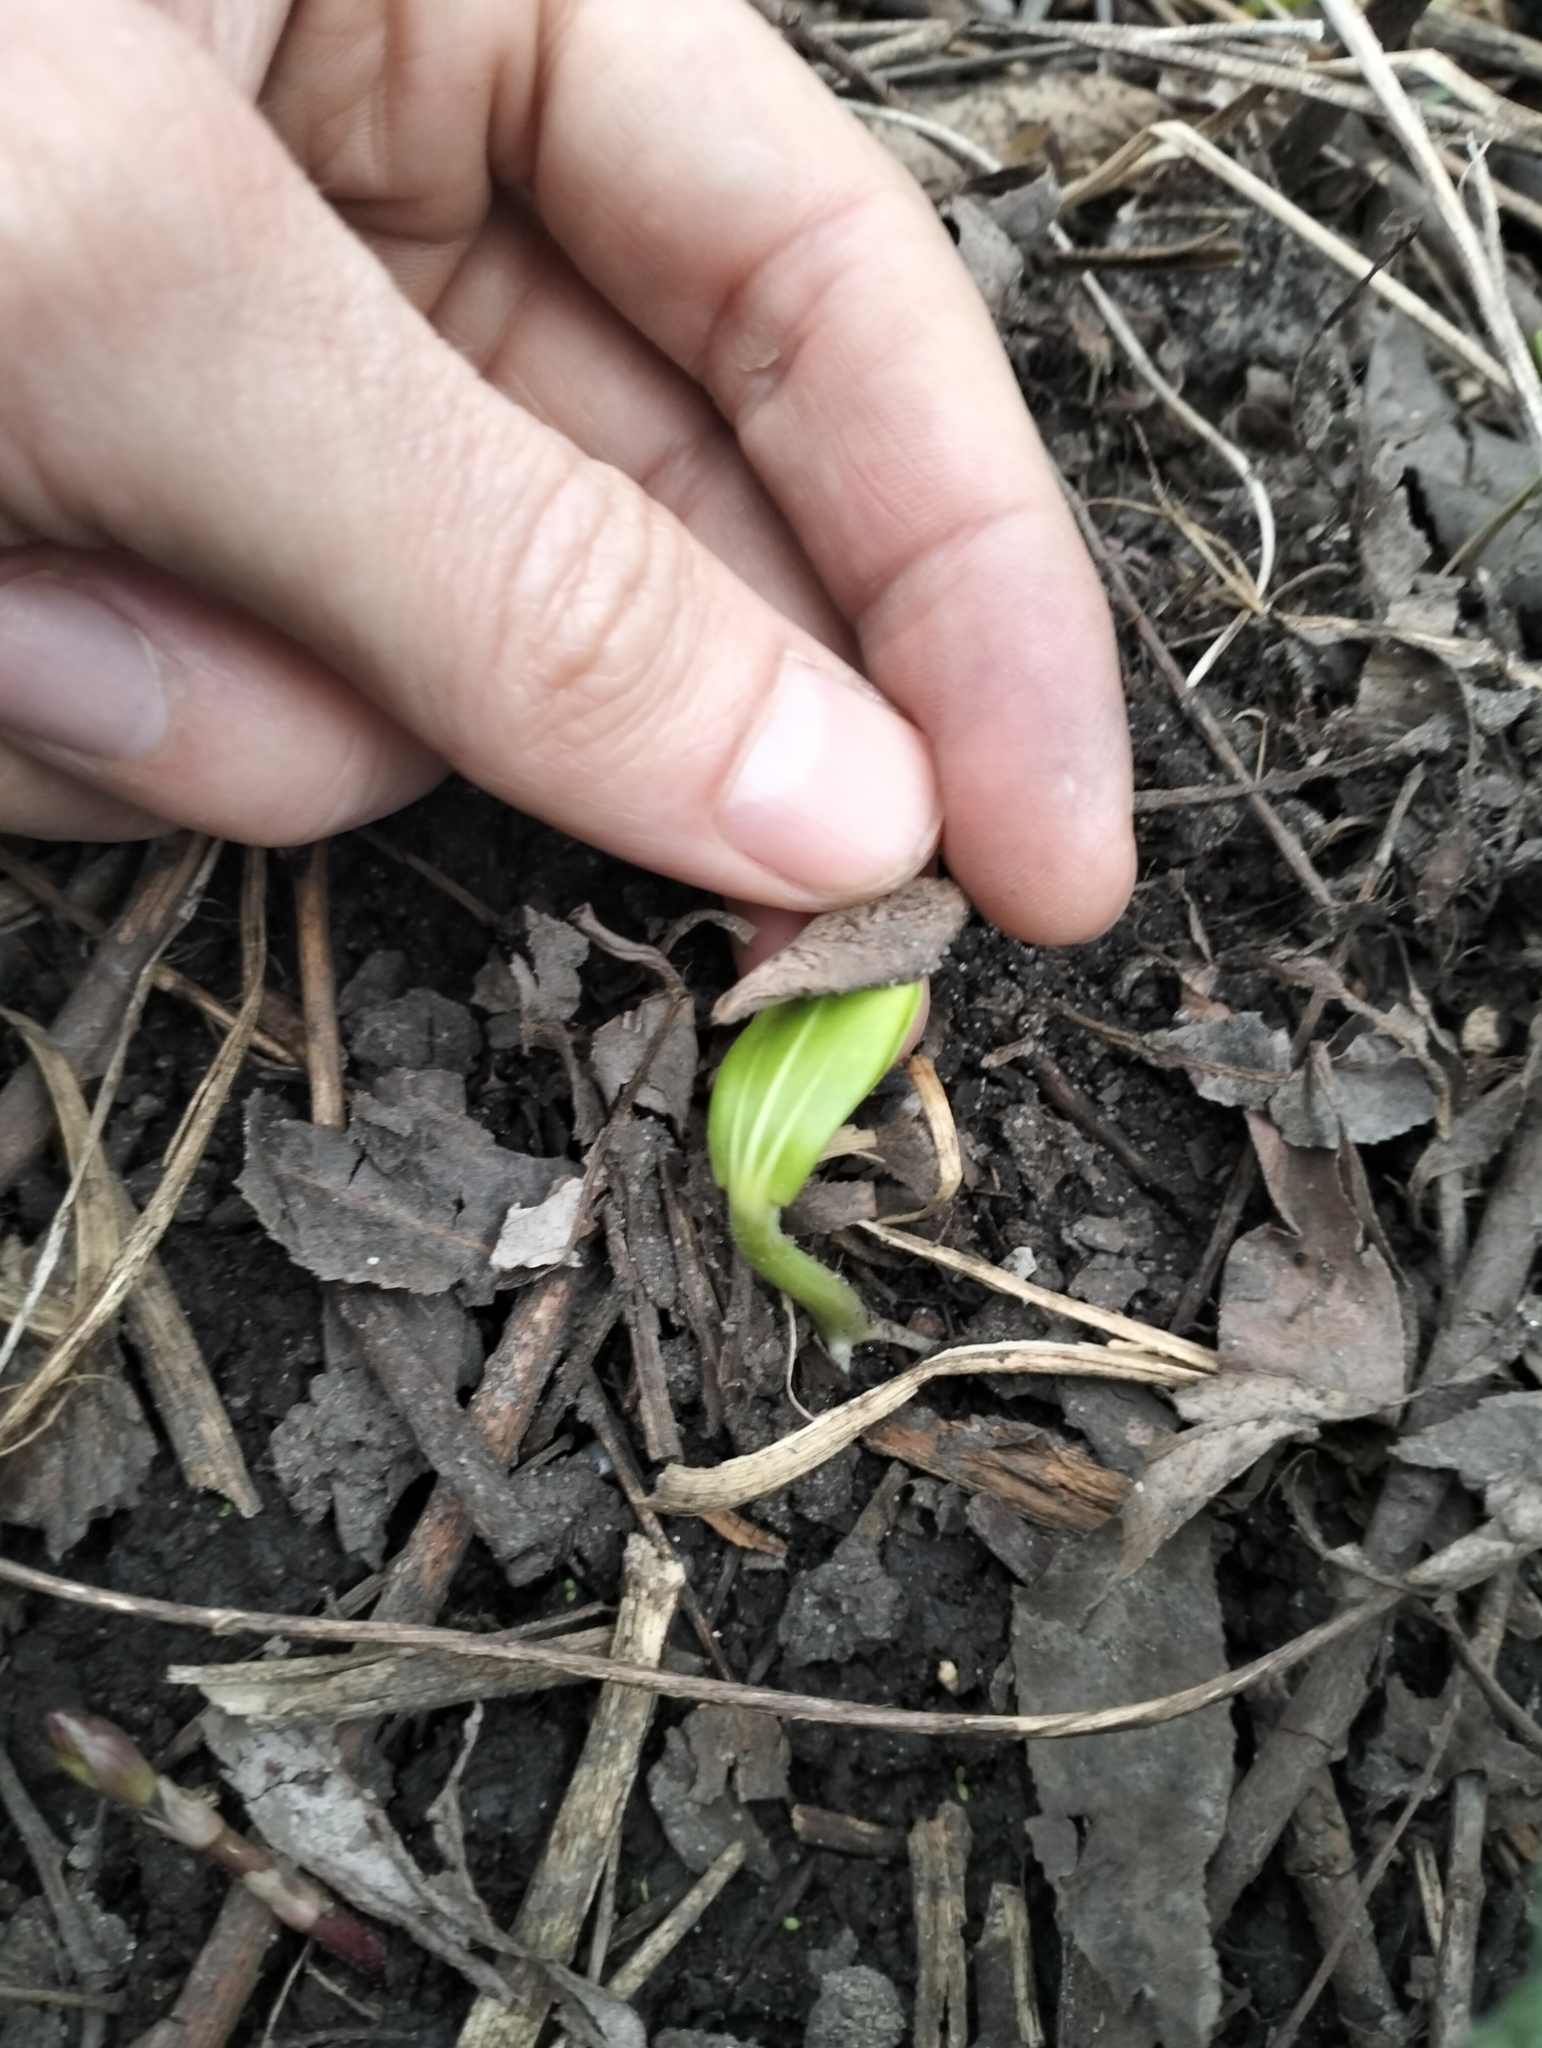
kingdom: Plantae
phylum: Tracheophyta
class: Magnoliopsida
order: Cucurbitales
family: Cucurbitaceae
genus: Echinocystis
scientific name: Echinocystis lobata
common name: Wild cucumber
